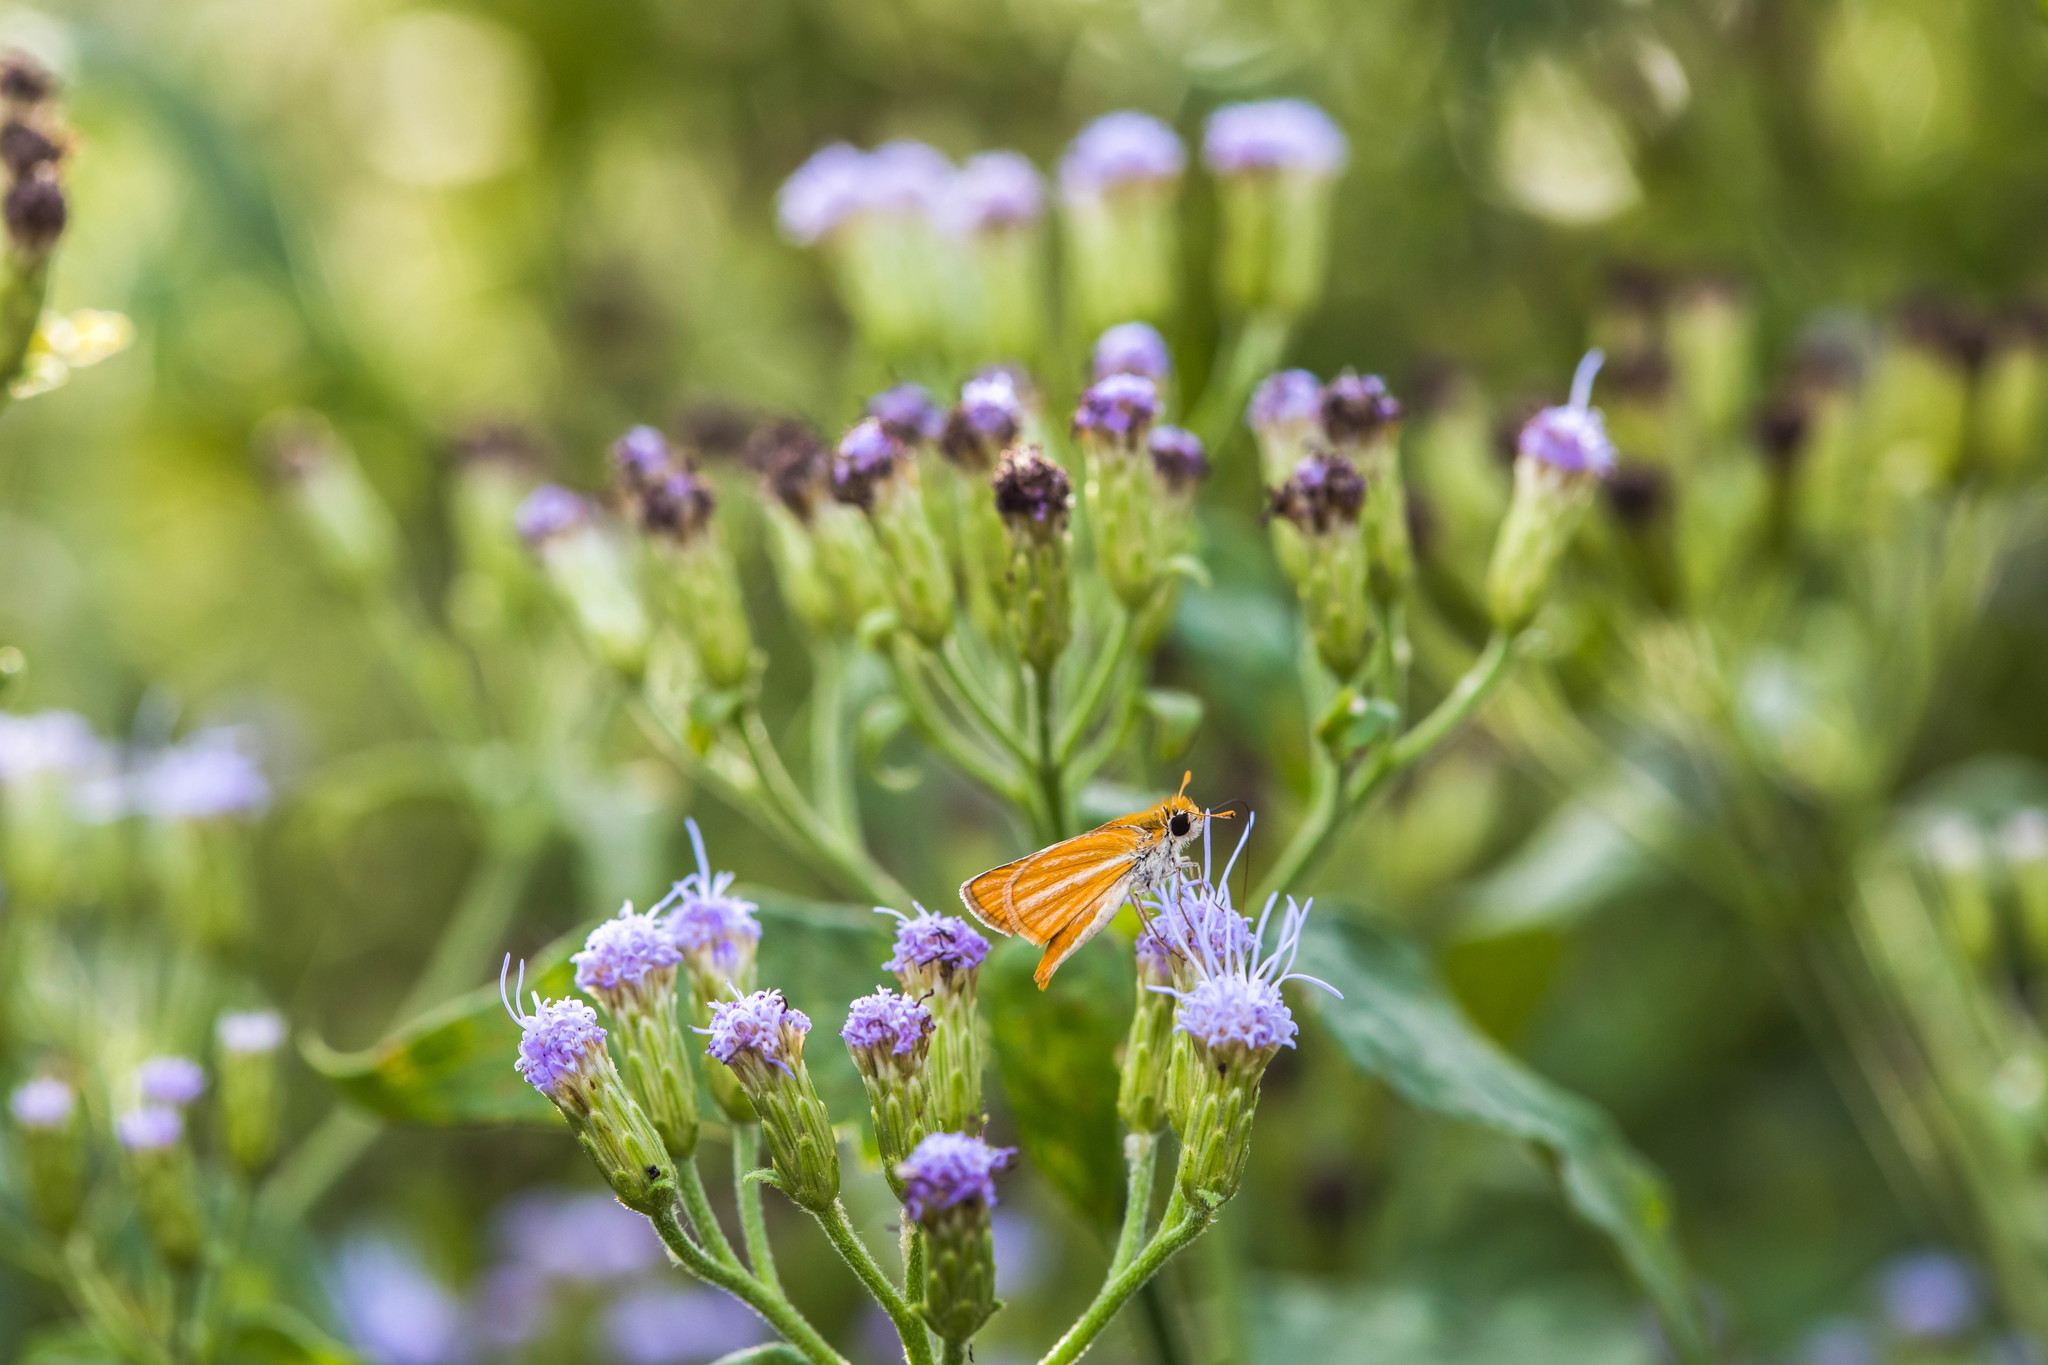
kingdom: Animalia
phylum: Arthropoda
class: Insecta
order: Lepidoptera
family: Hesperiidae
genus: Copaeodes
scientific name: Copaeodes minima
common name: Southern skipperling
